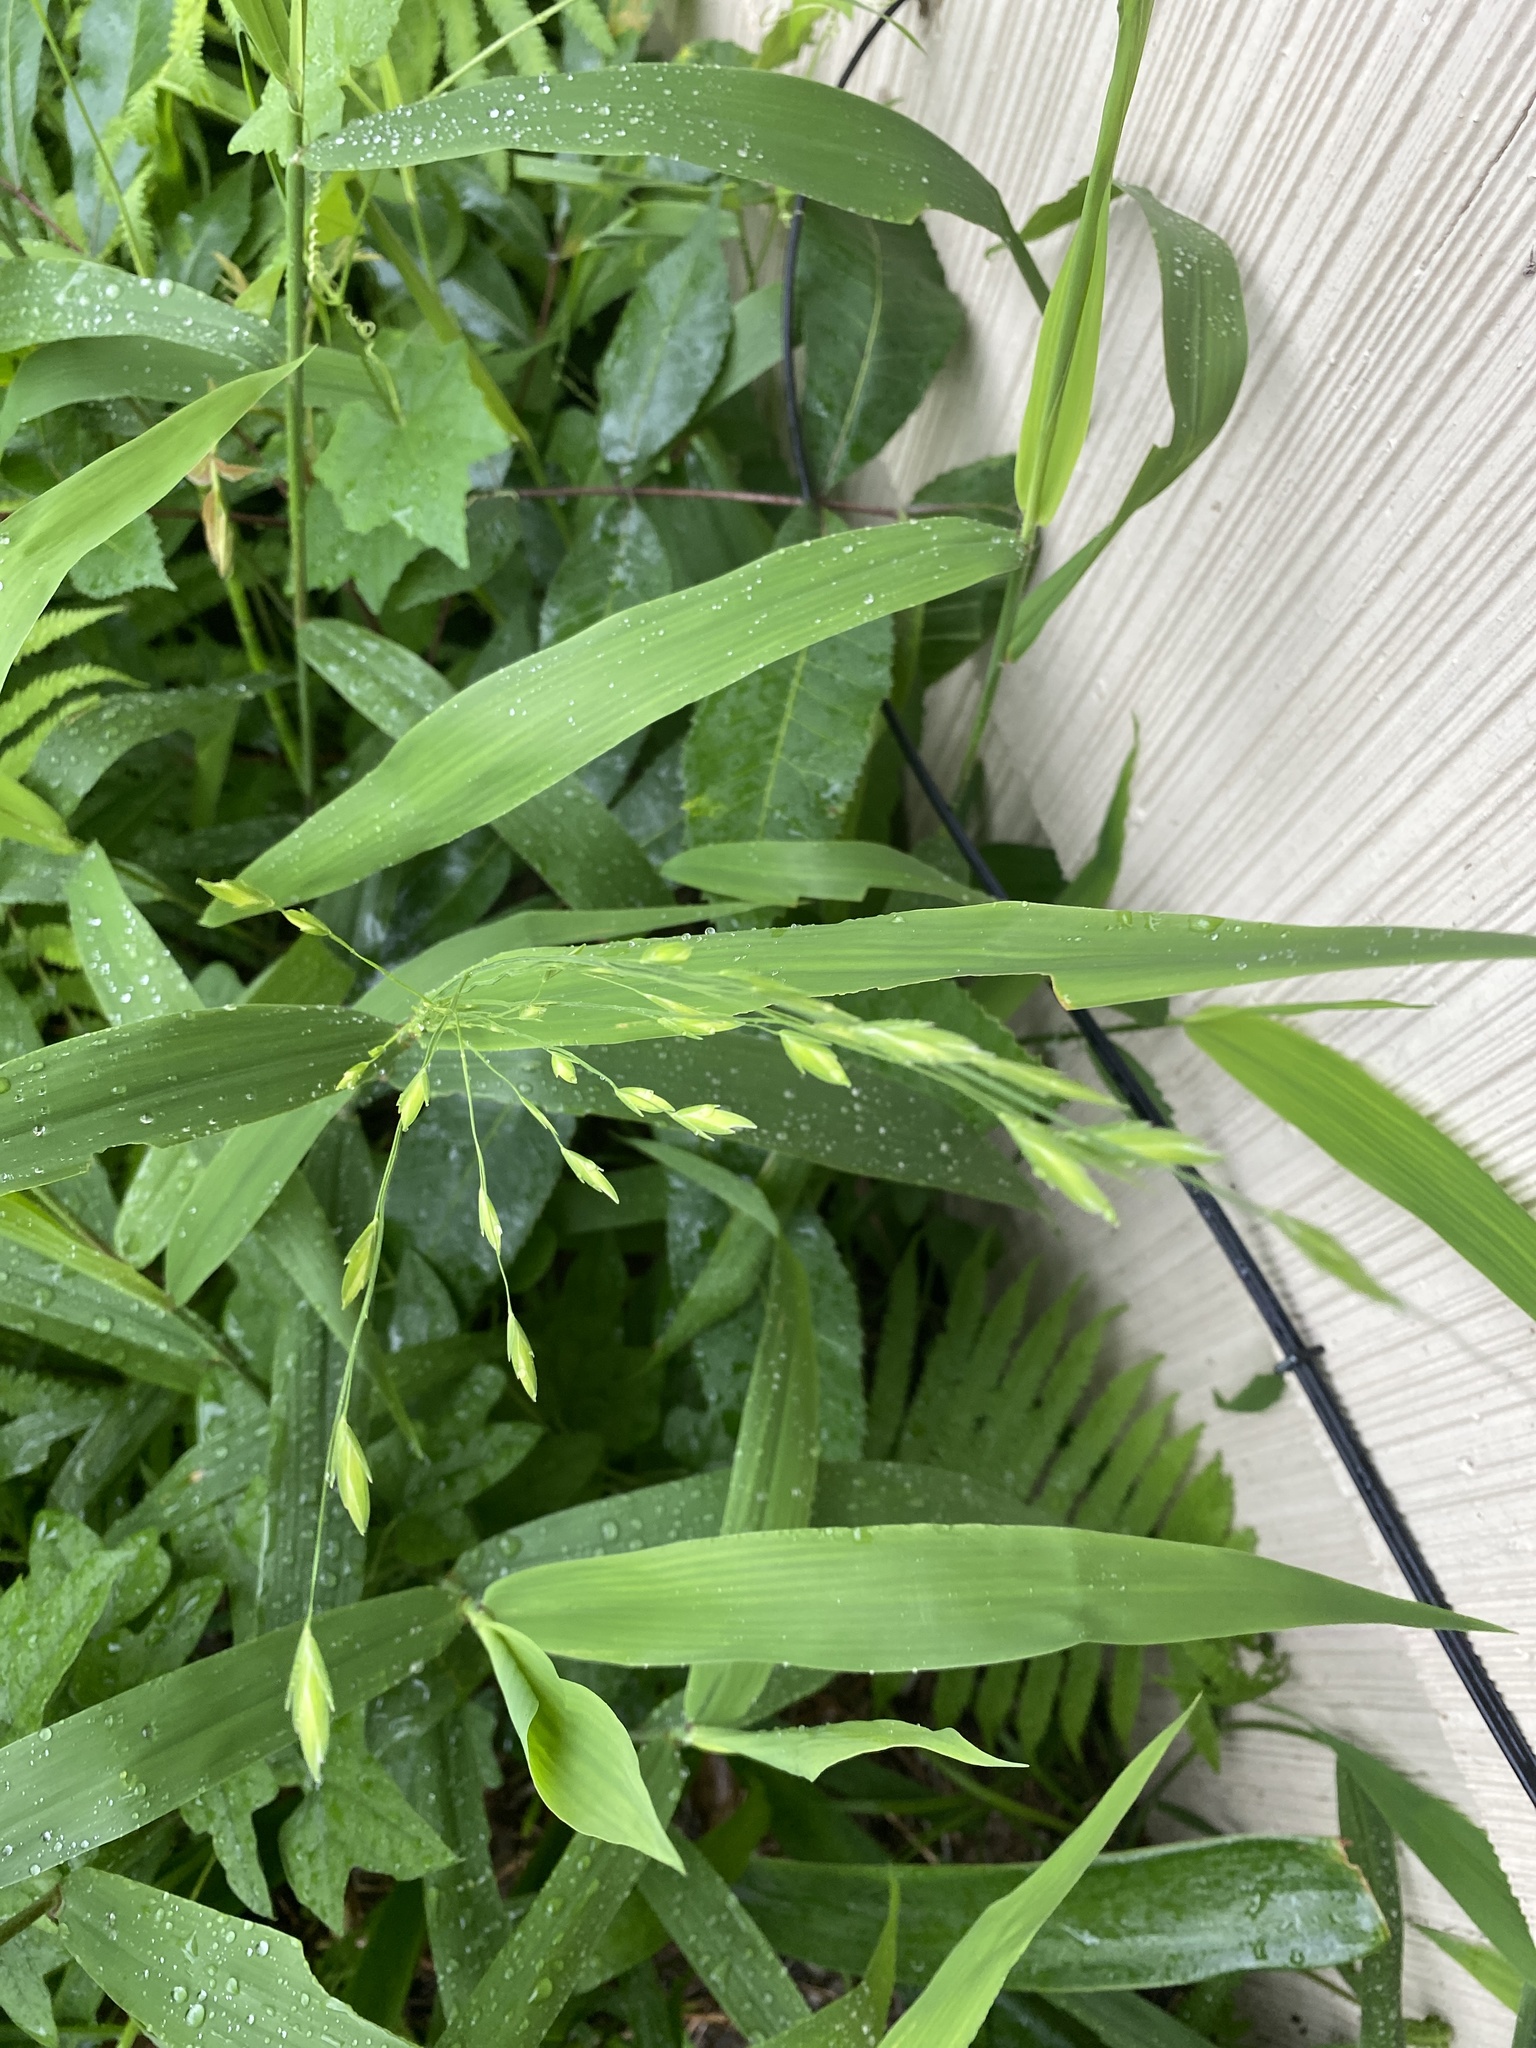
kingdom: Plantae
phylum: Tracheophyta
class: Liliopsida
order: Poales
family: Poaceae
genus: Chasmanthium
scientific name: Chasmanthium latifolium
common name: Broad-leaved chasmanthium
